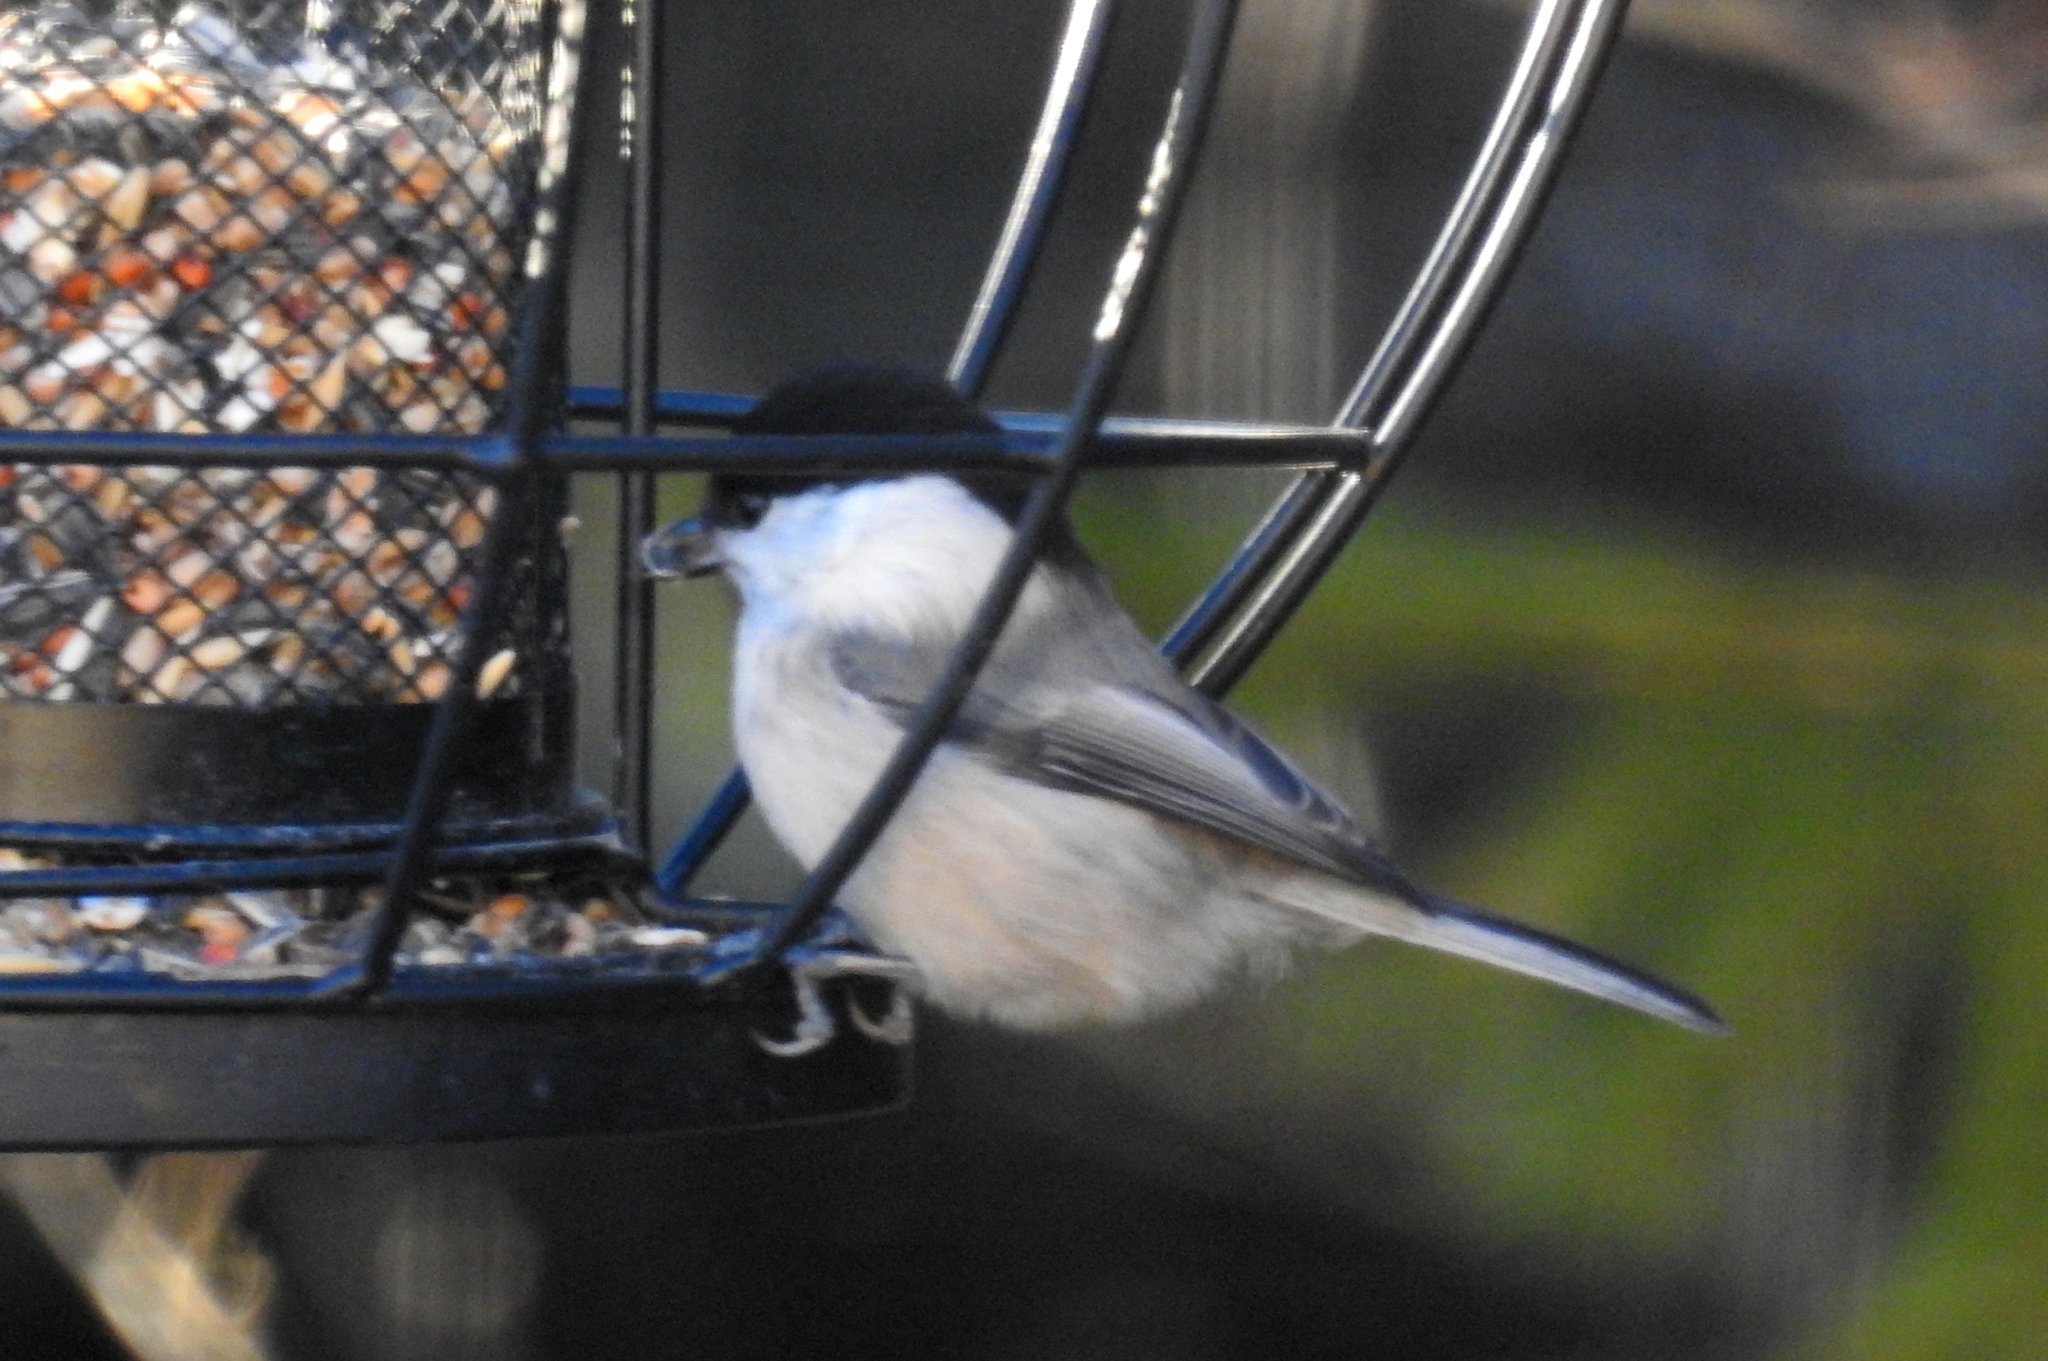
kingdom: Animalia
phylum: Chordata
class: Aves
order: Passeriformes
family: Paridae
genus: Poecile
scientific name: Poecile montanus
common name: Willow tit
